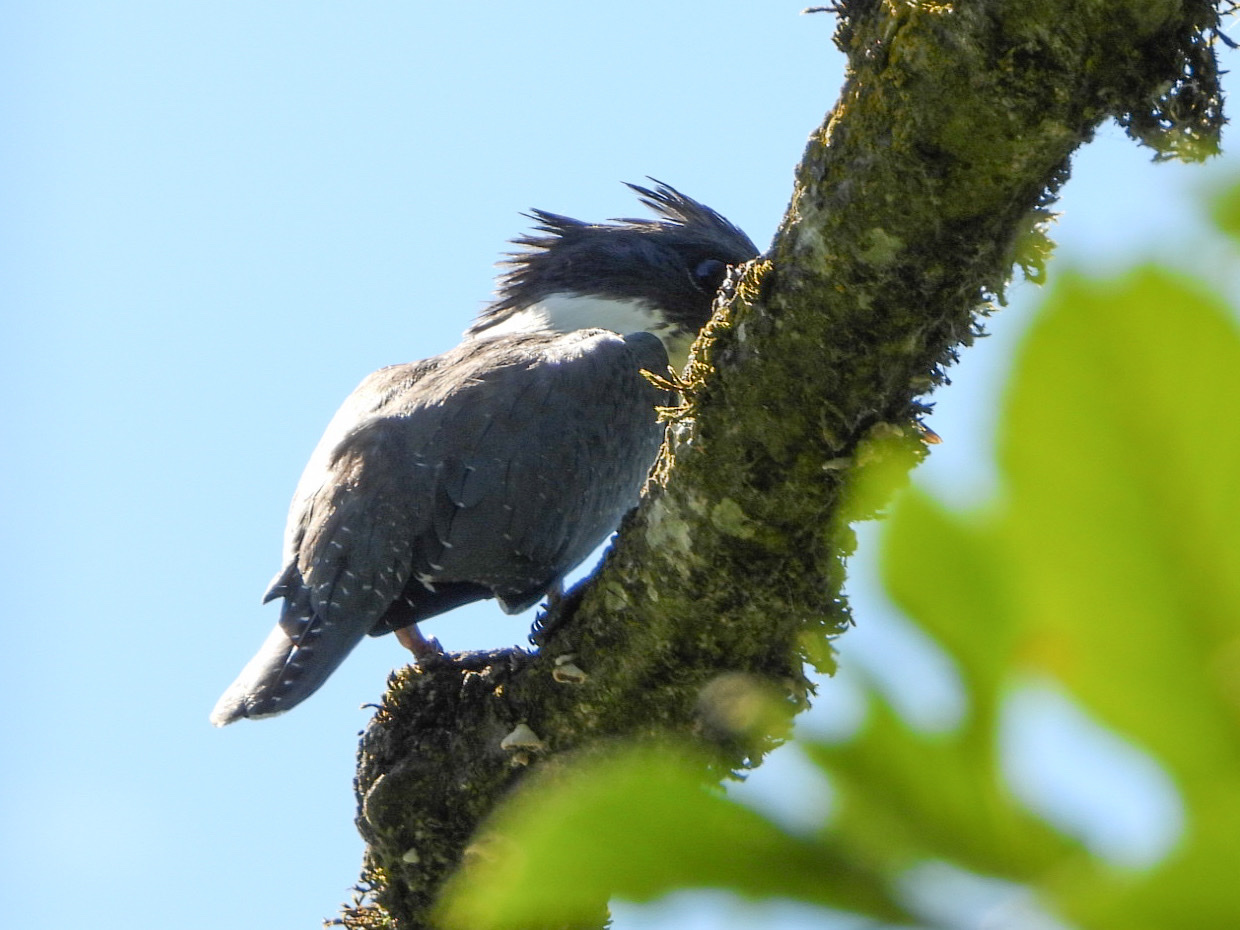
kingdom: Animalia
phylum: Chordata
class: Aves
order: Coraciiformes
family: Alcedinidae
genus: Megaceryle
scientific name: Megaceryle alcyon
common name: Belted kingfisher
